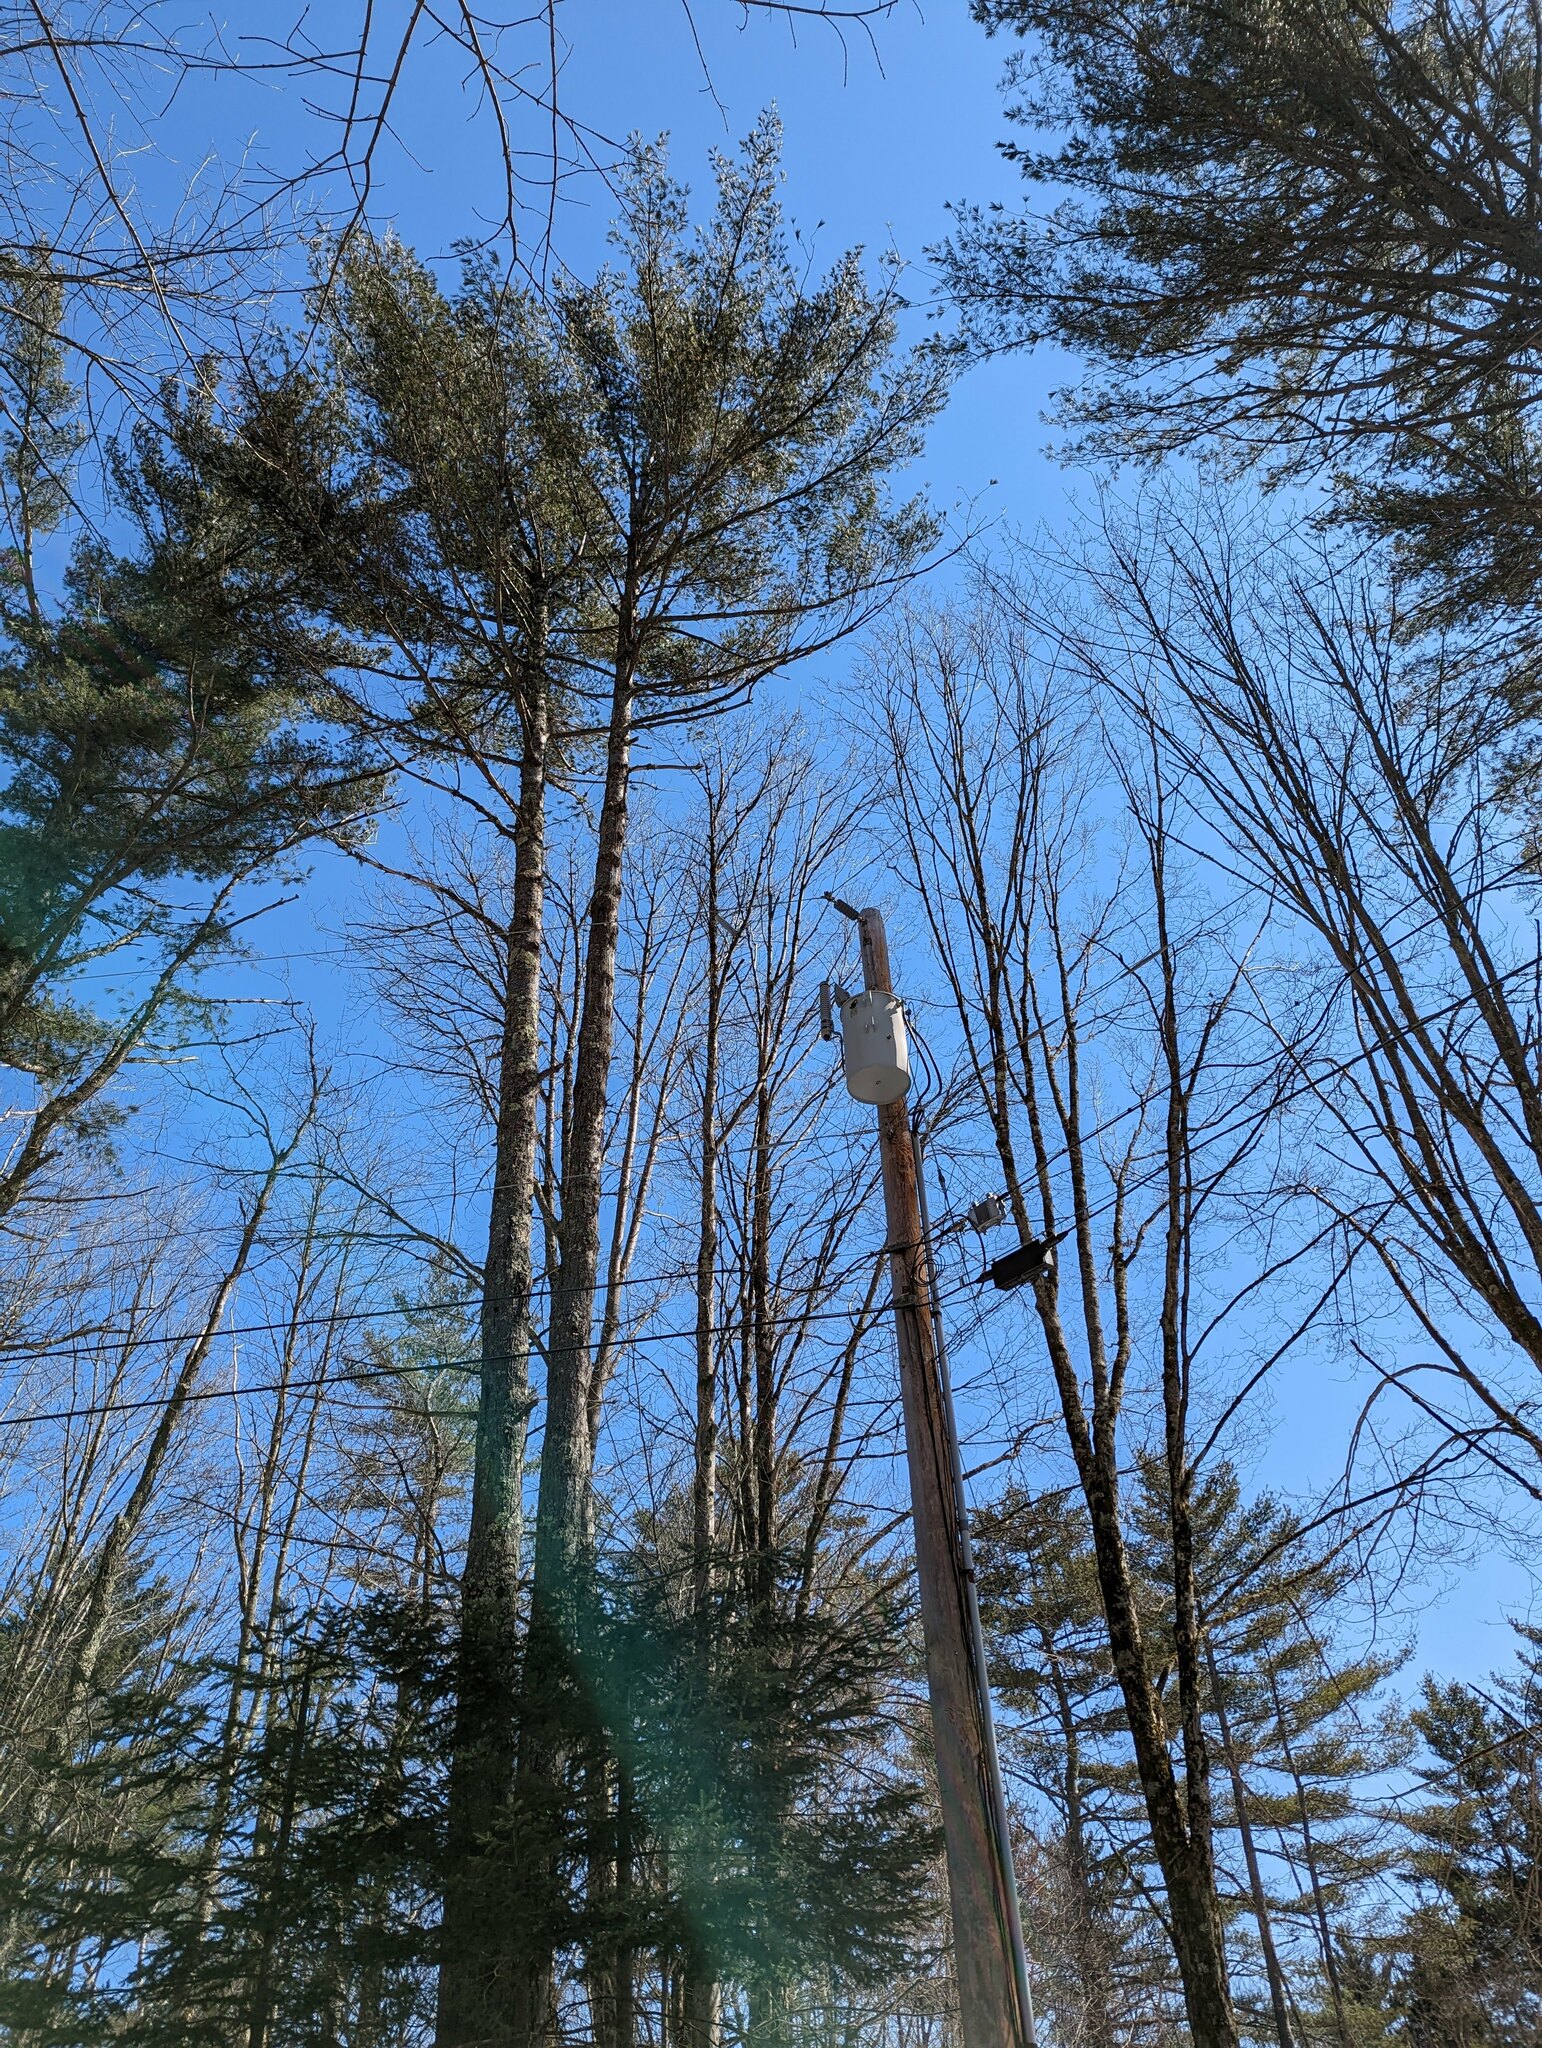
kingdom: Plantae
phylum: Tracheophyta
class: Pinopsida
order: Pinales
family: Pinaceae
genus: Pinus
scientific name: Pinus strobus
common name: Weymouth pine
